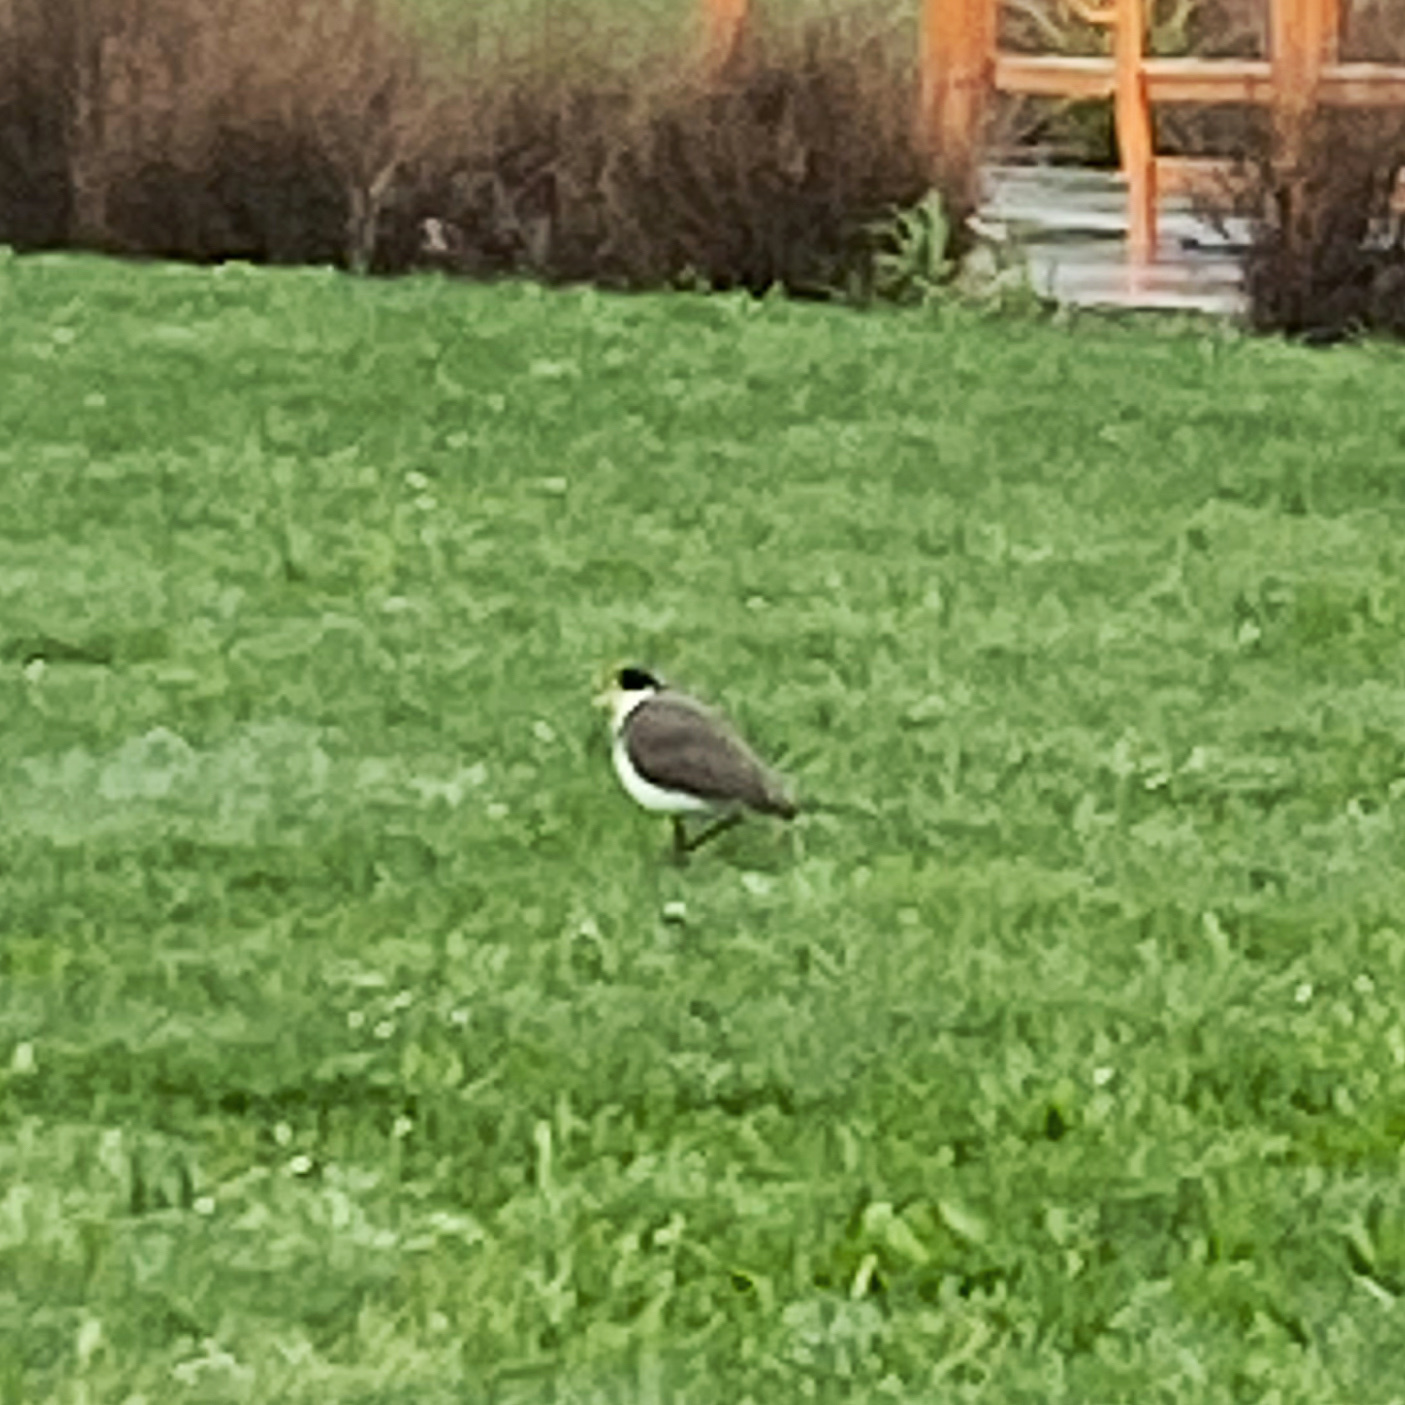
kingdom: Animalia
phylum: Chordata
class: Aves
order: Charadriiformes
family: Charadriidae
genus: Vanellus
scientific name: Vanellus miles
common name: Masked lapwing
